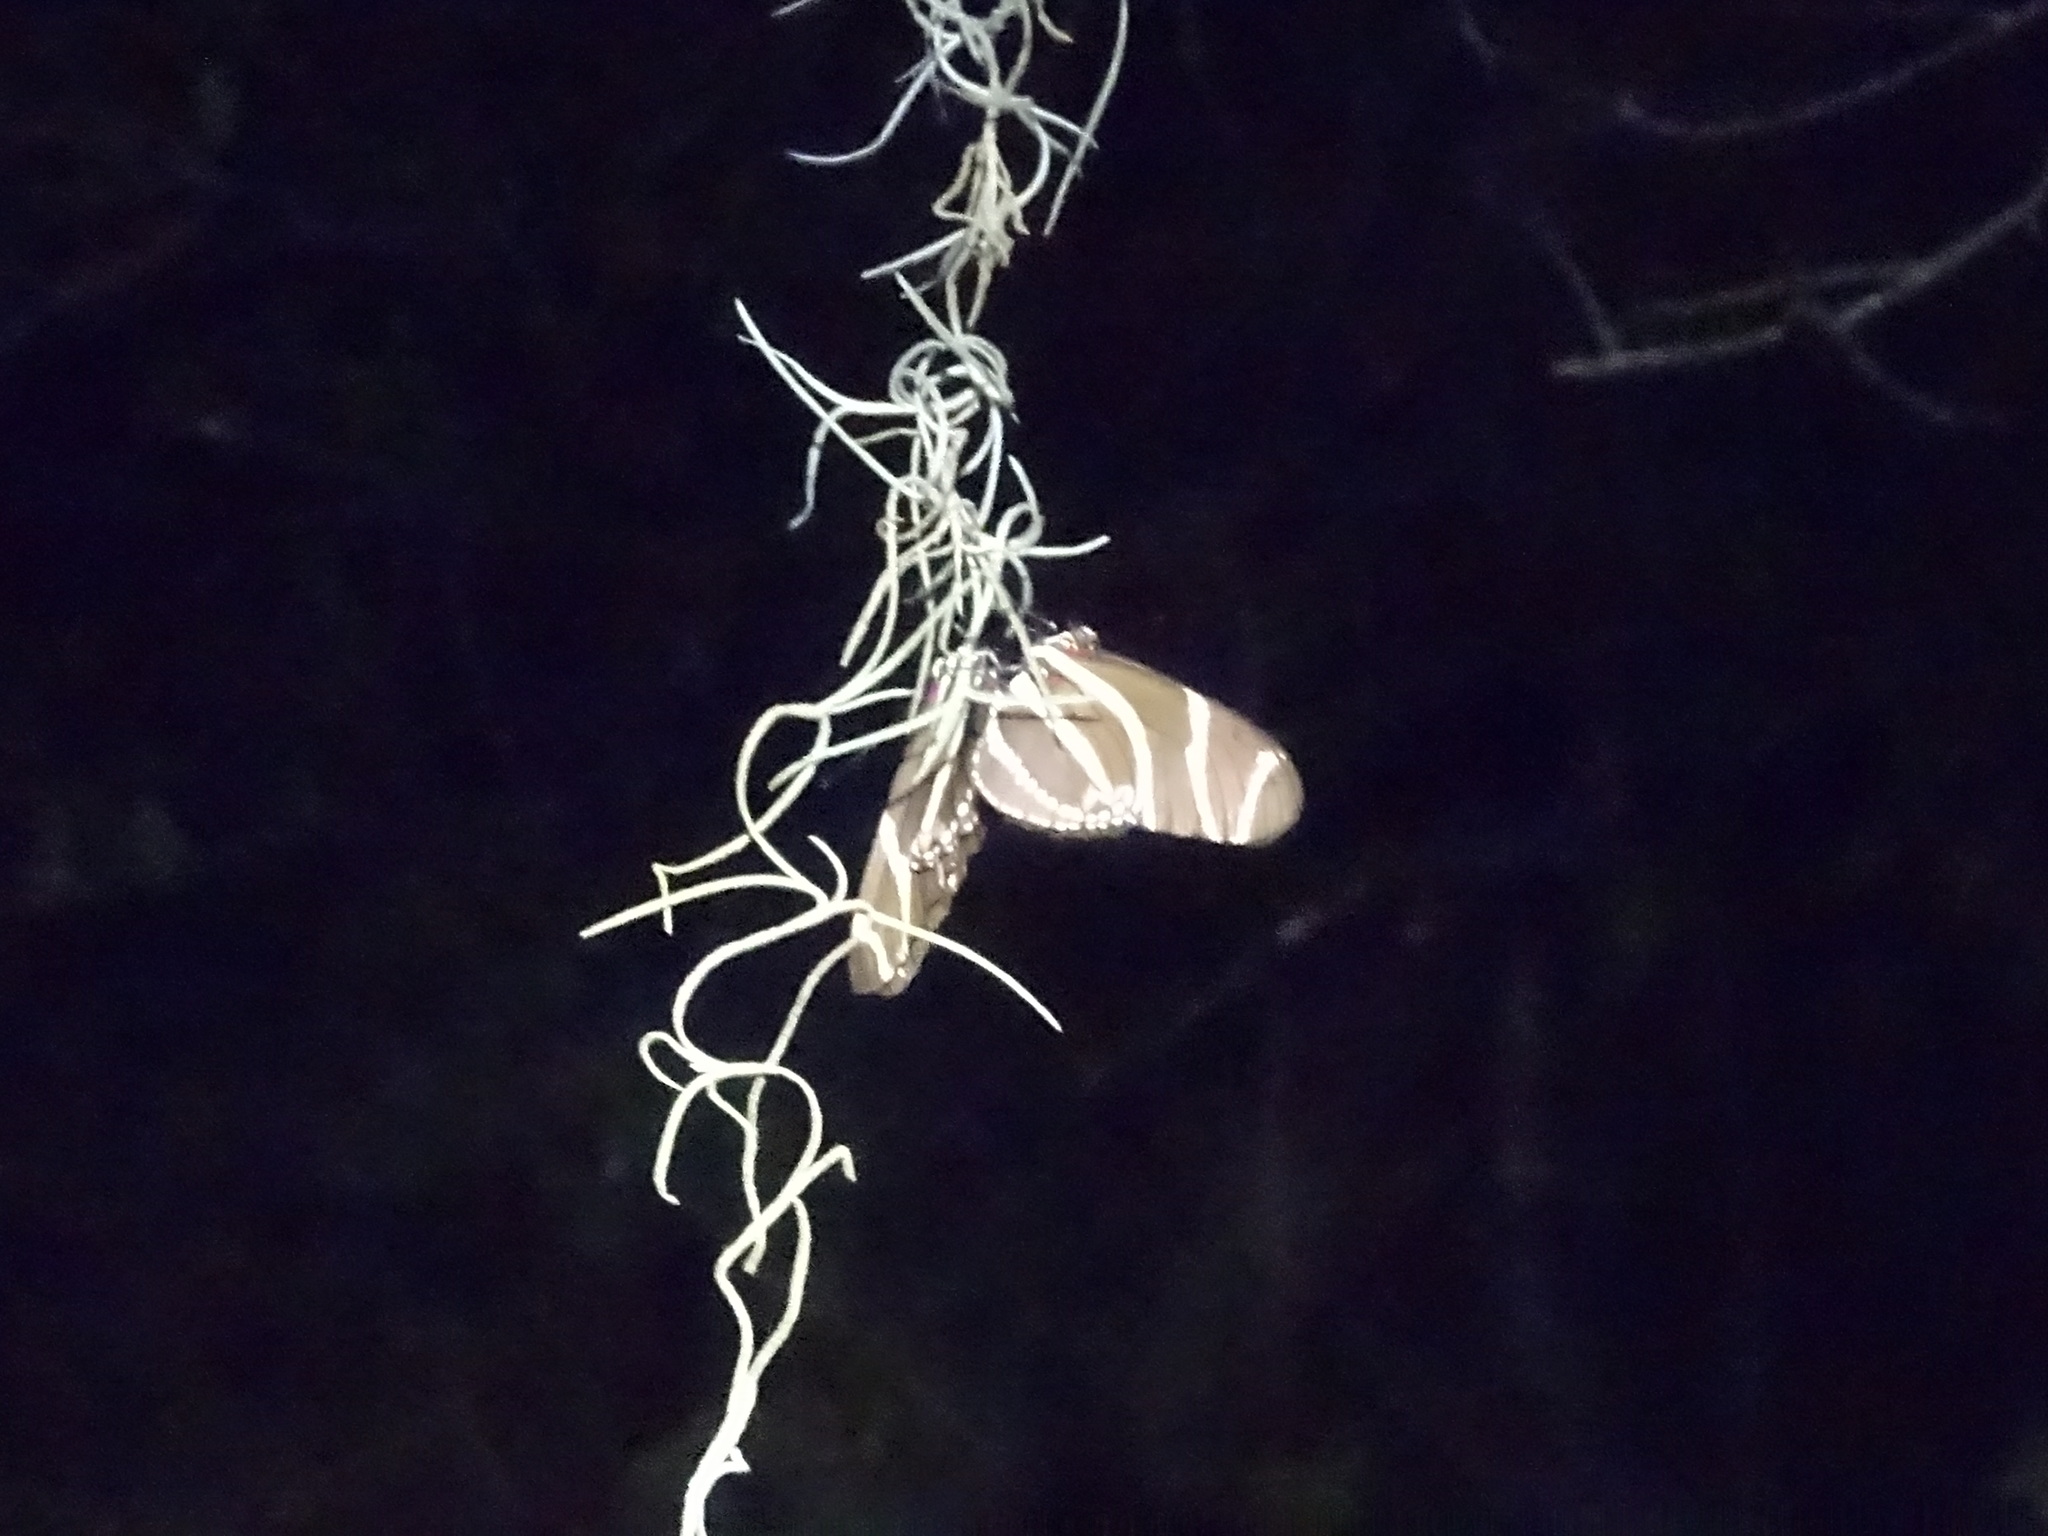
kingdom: Animalia
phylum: Arthropoda
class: Insecta
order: Lepidoptera
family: Nymphalidae
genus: Heliconius
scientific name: Heliconius charithonia
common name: Zebra long wing
